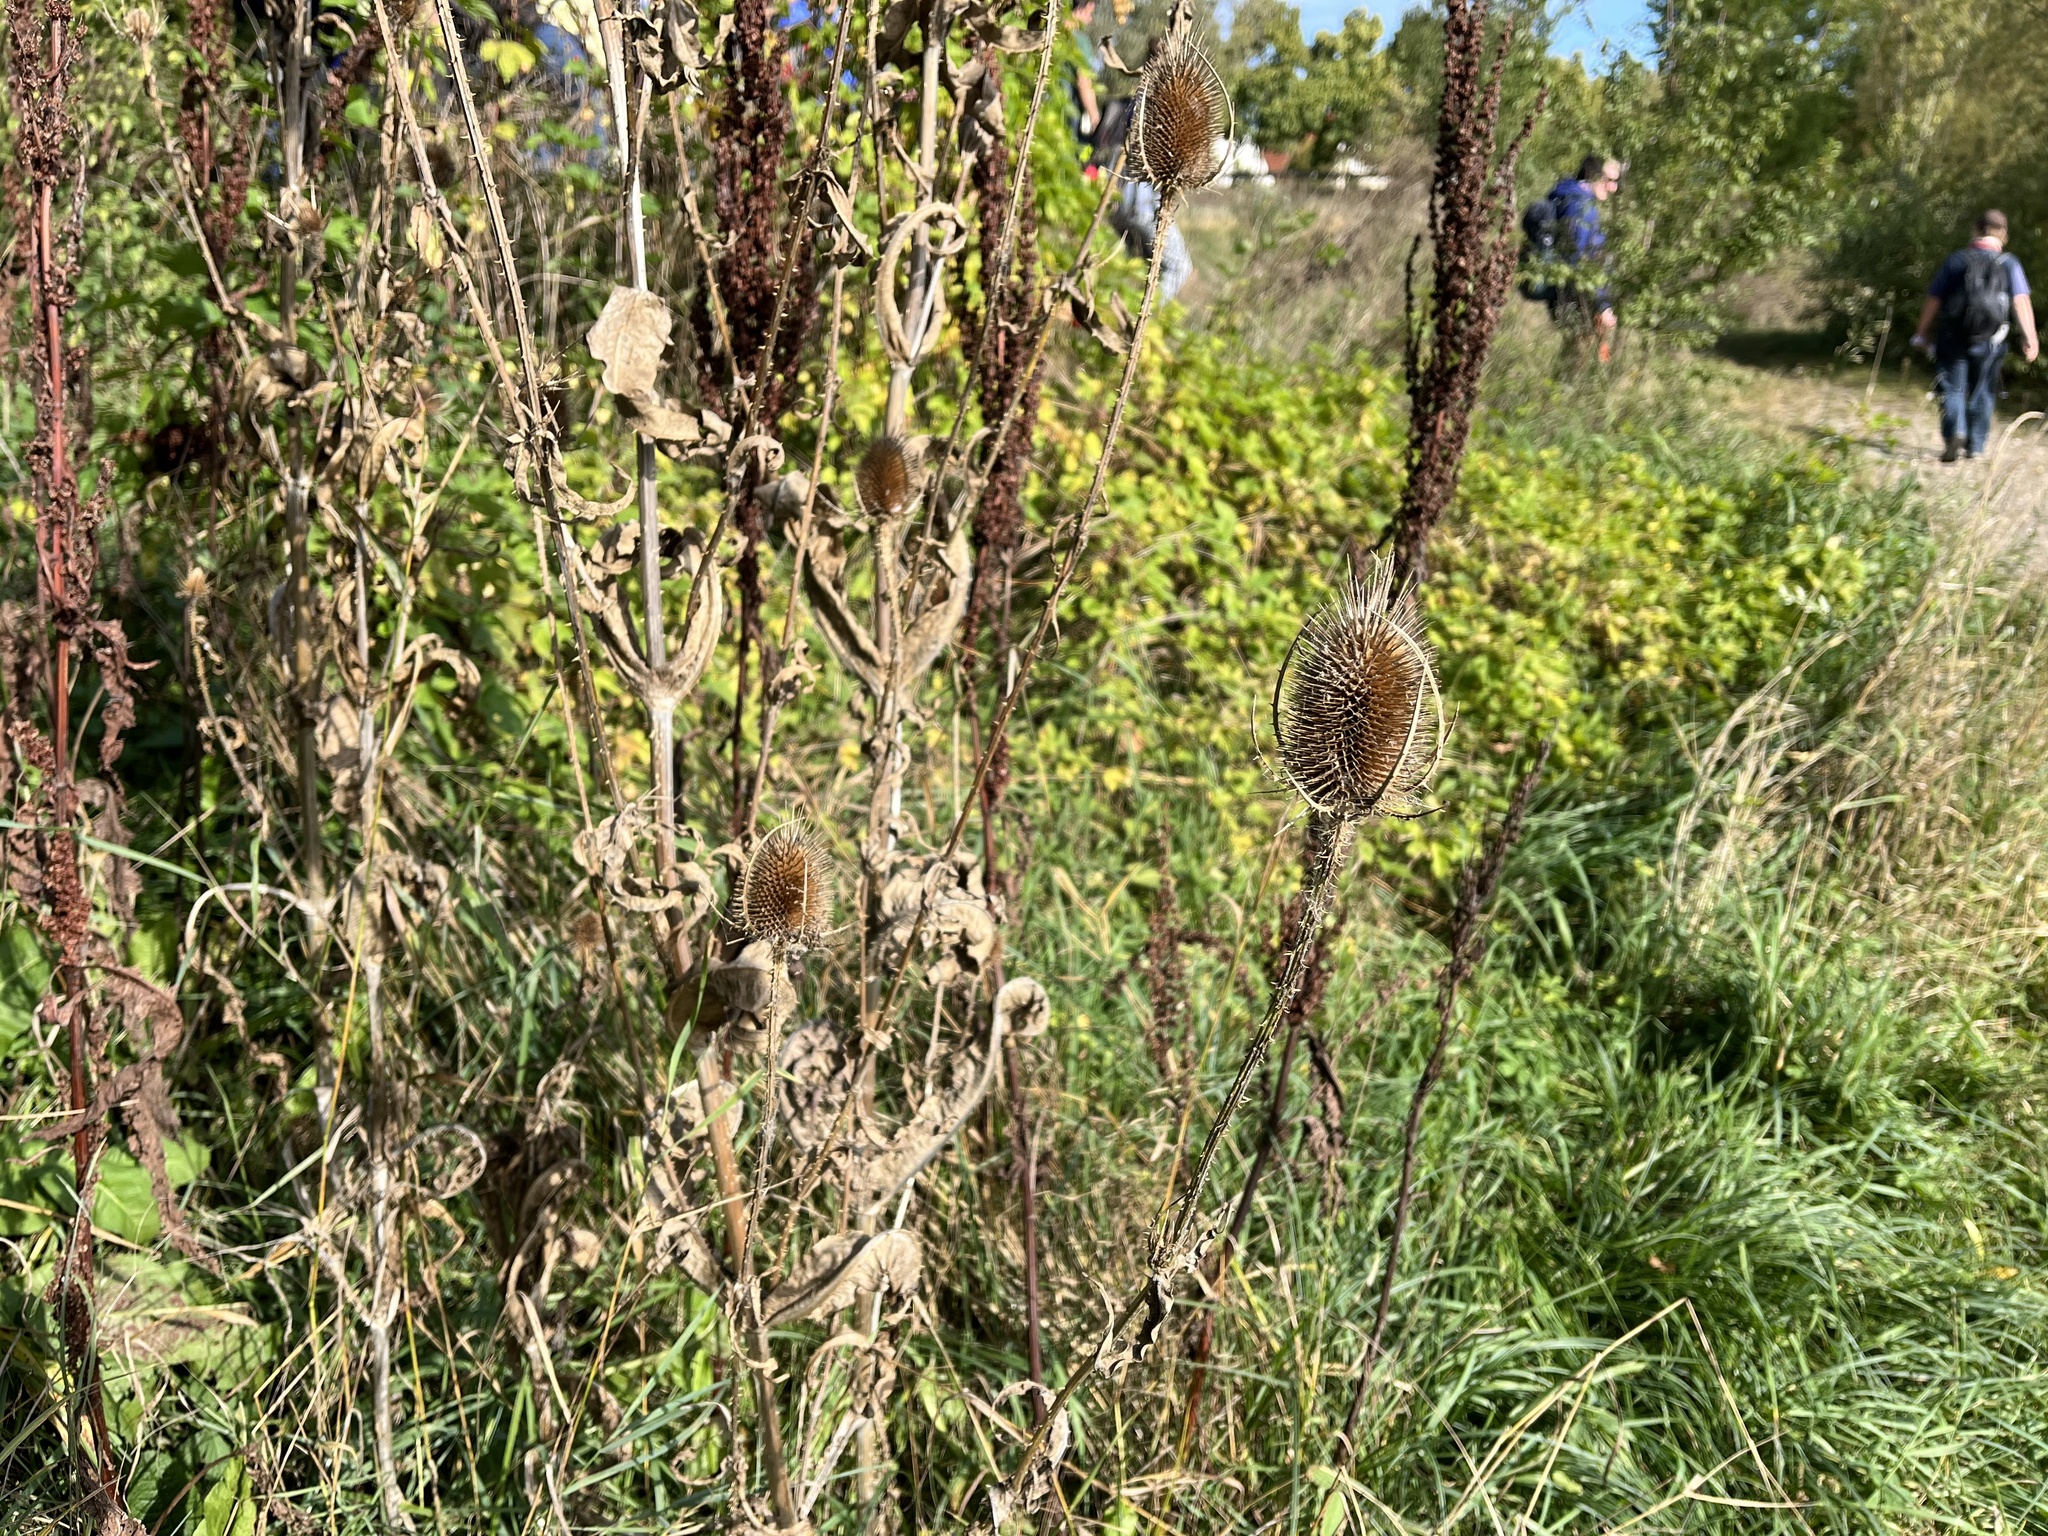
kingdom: Plantae
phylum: Tracheophyta
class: Magnoliopsida
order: Dipsacales
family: Caprifoliaceae
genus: Dipsacus
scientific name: Dipsacus fullonum
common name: Teasel
